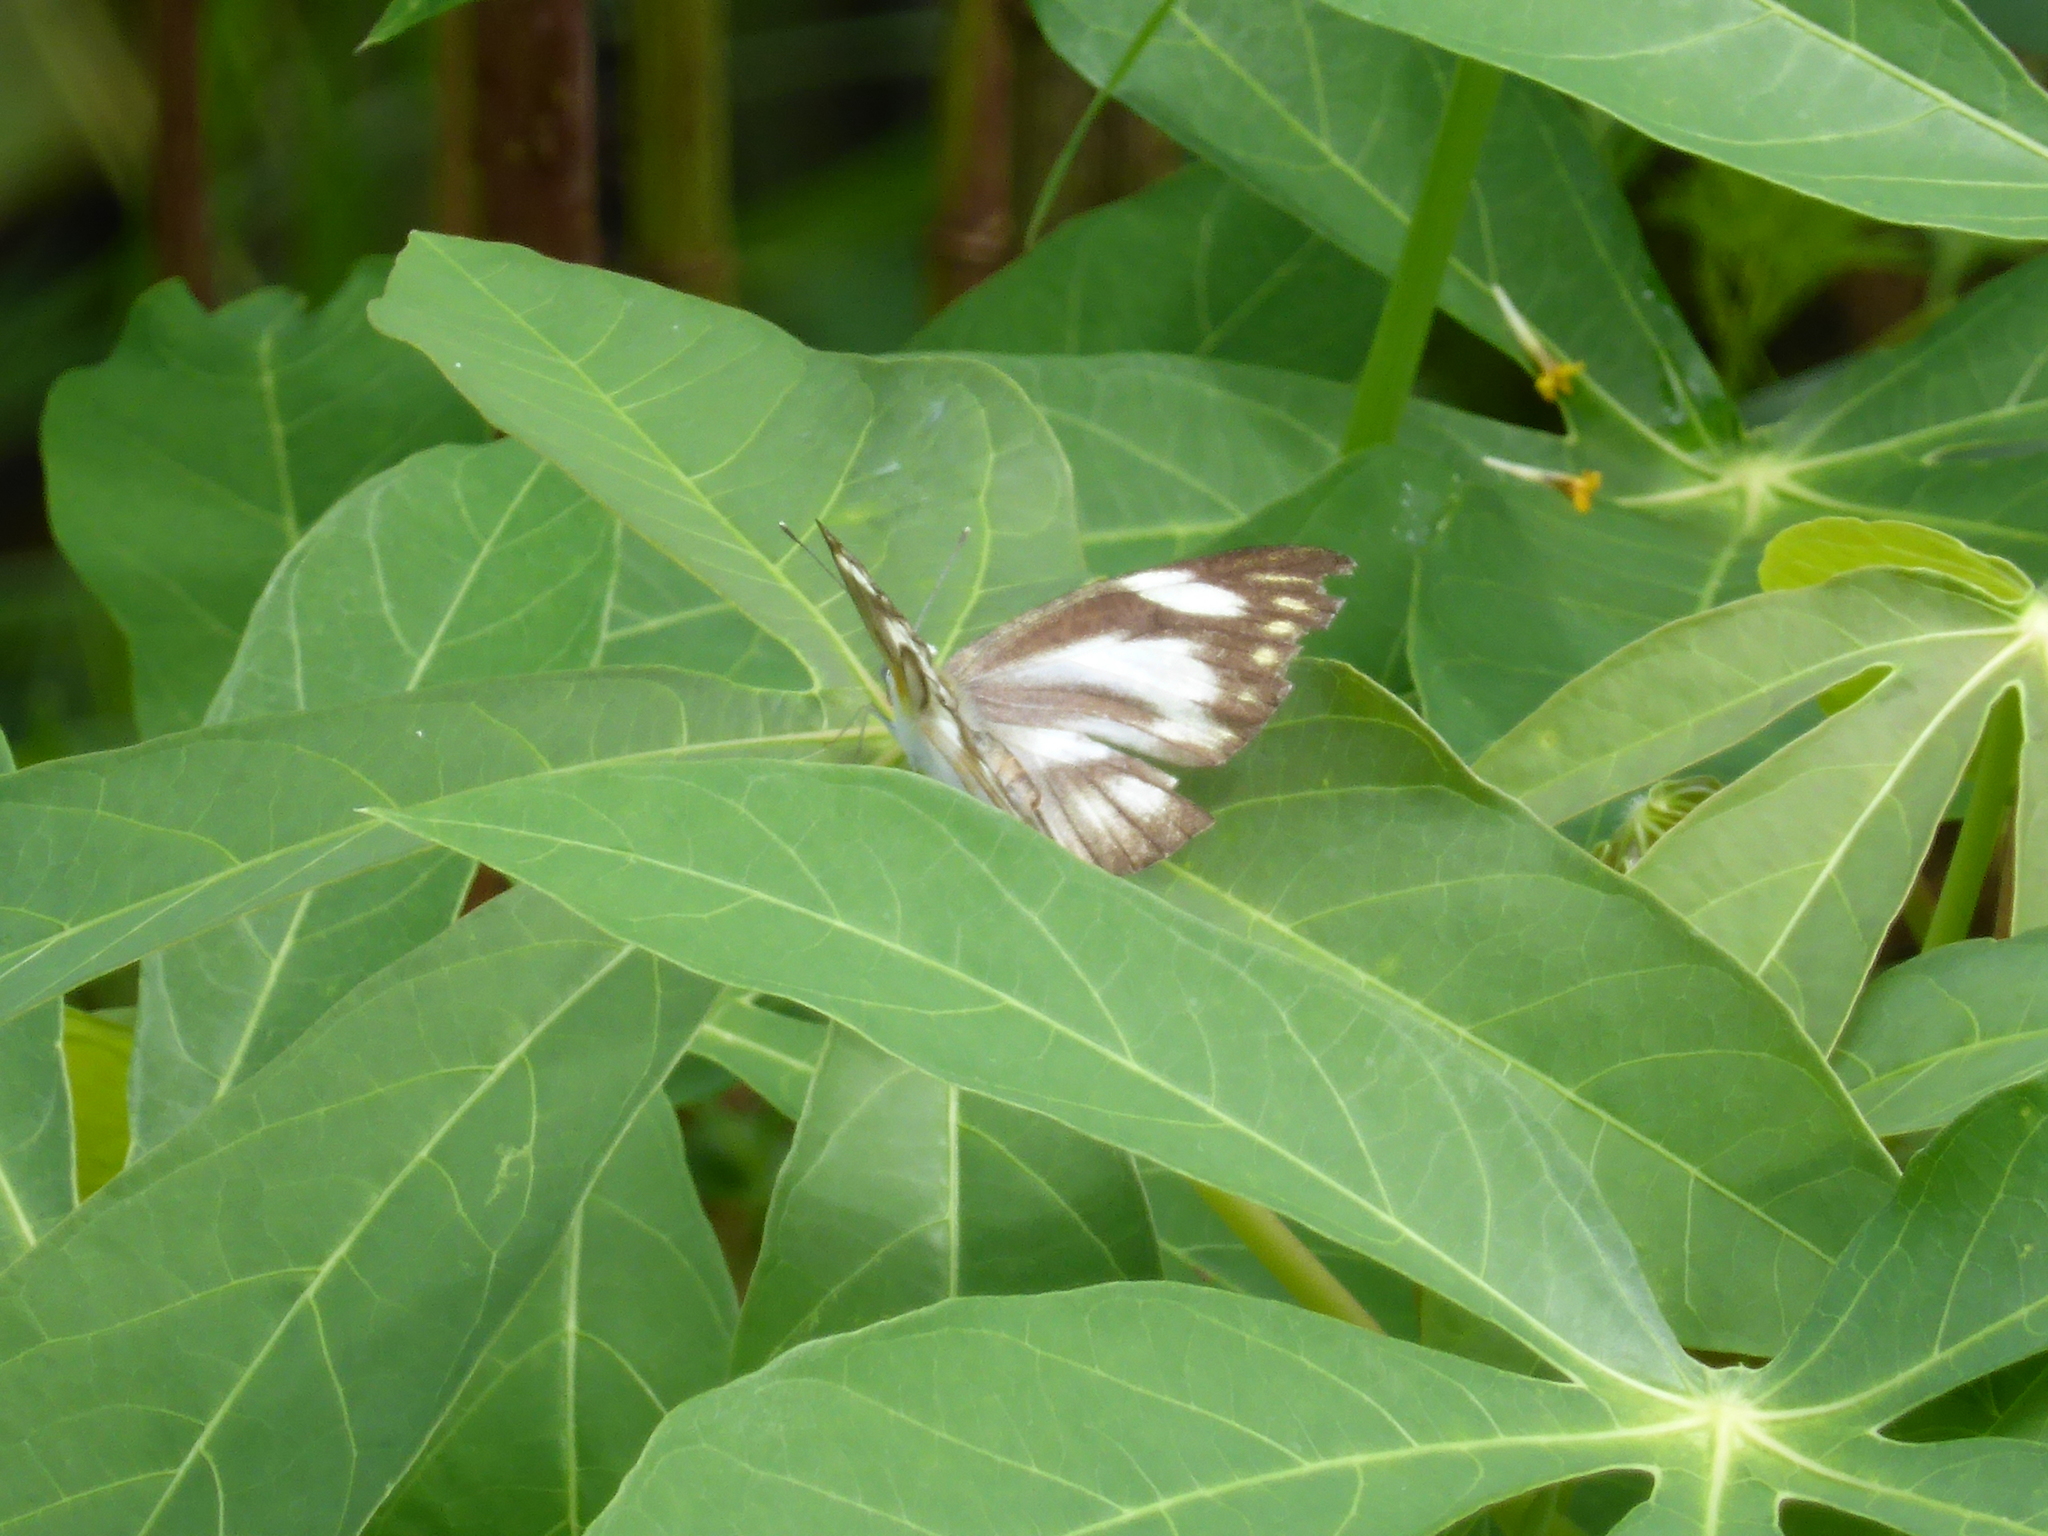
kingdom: Animalia
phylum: Arthropoda
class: Insecta
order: Lepidoptera
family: Pieridae
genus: Appias
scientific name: Appias libythea
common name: Striped albatross
